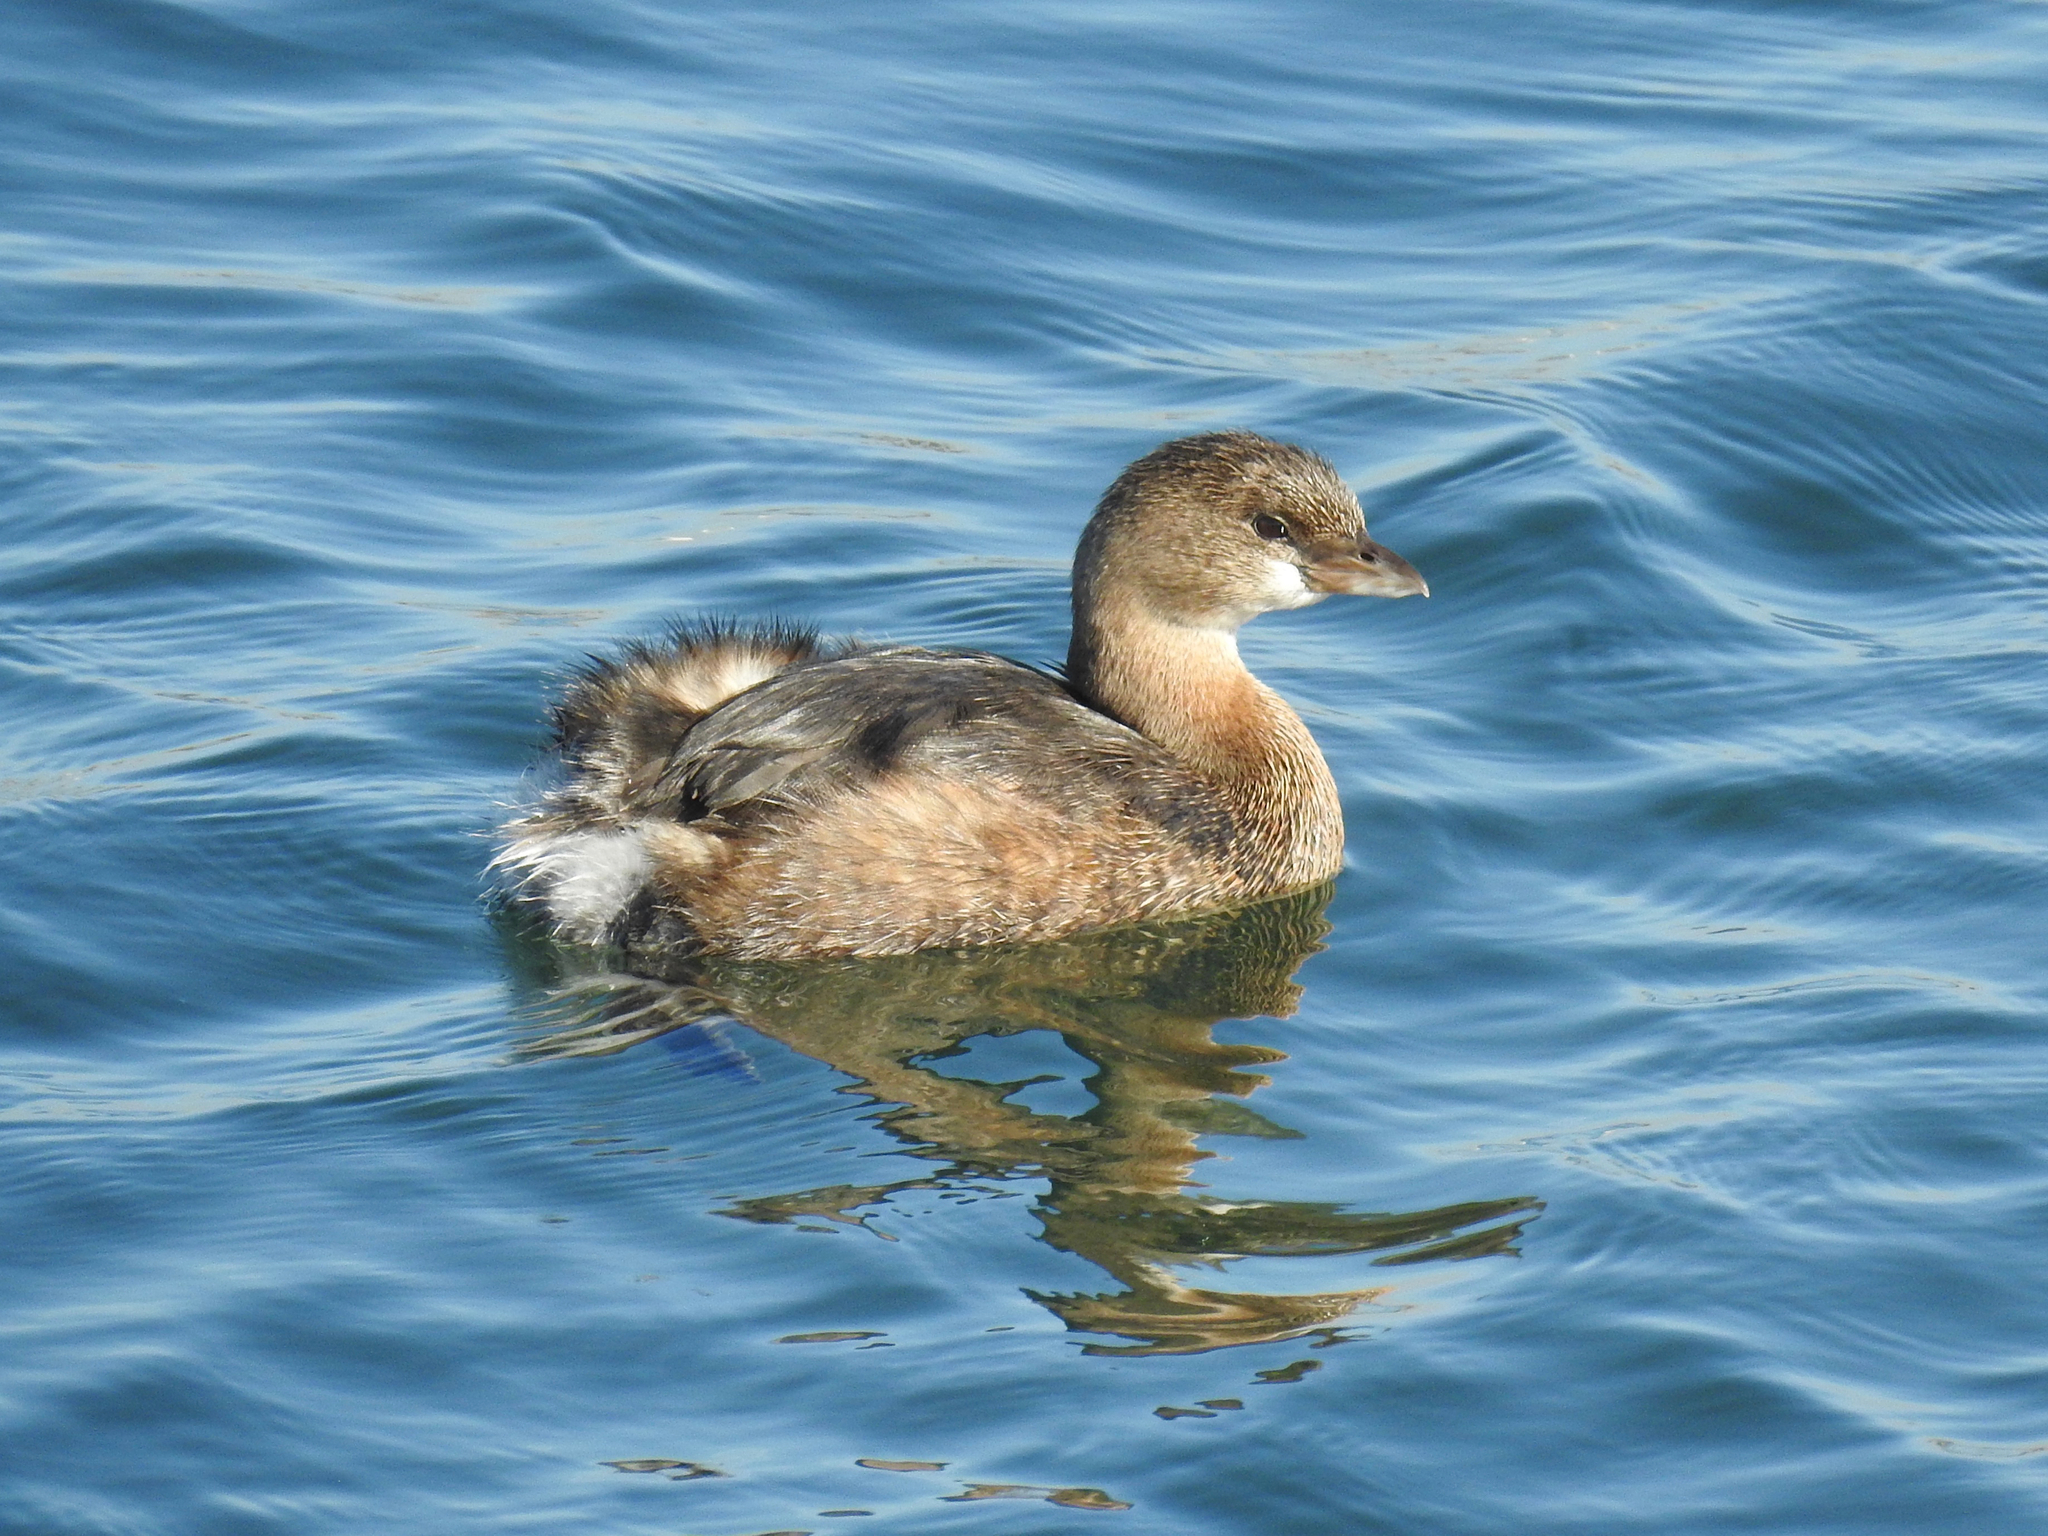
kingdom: Animalia
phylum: Chordata
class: Aves
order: Podicipediformes
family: Podicipedidae
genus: Podilymbus
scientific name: Podilymbus podiceps
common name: Pied-billed grebe
